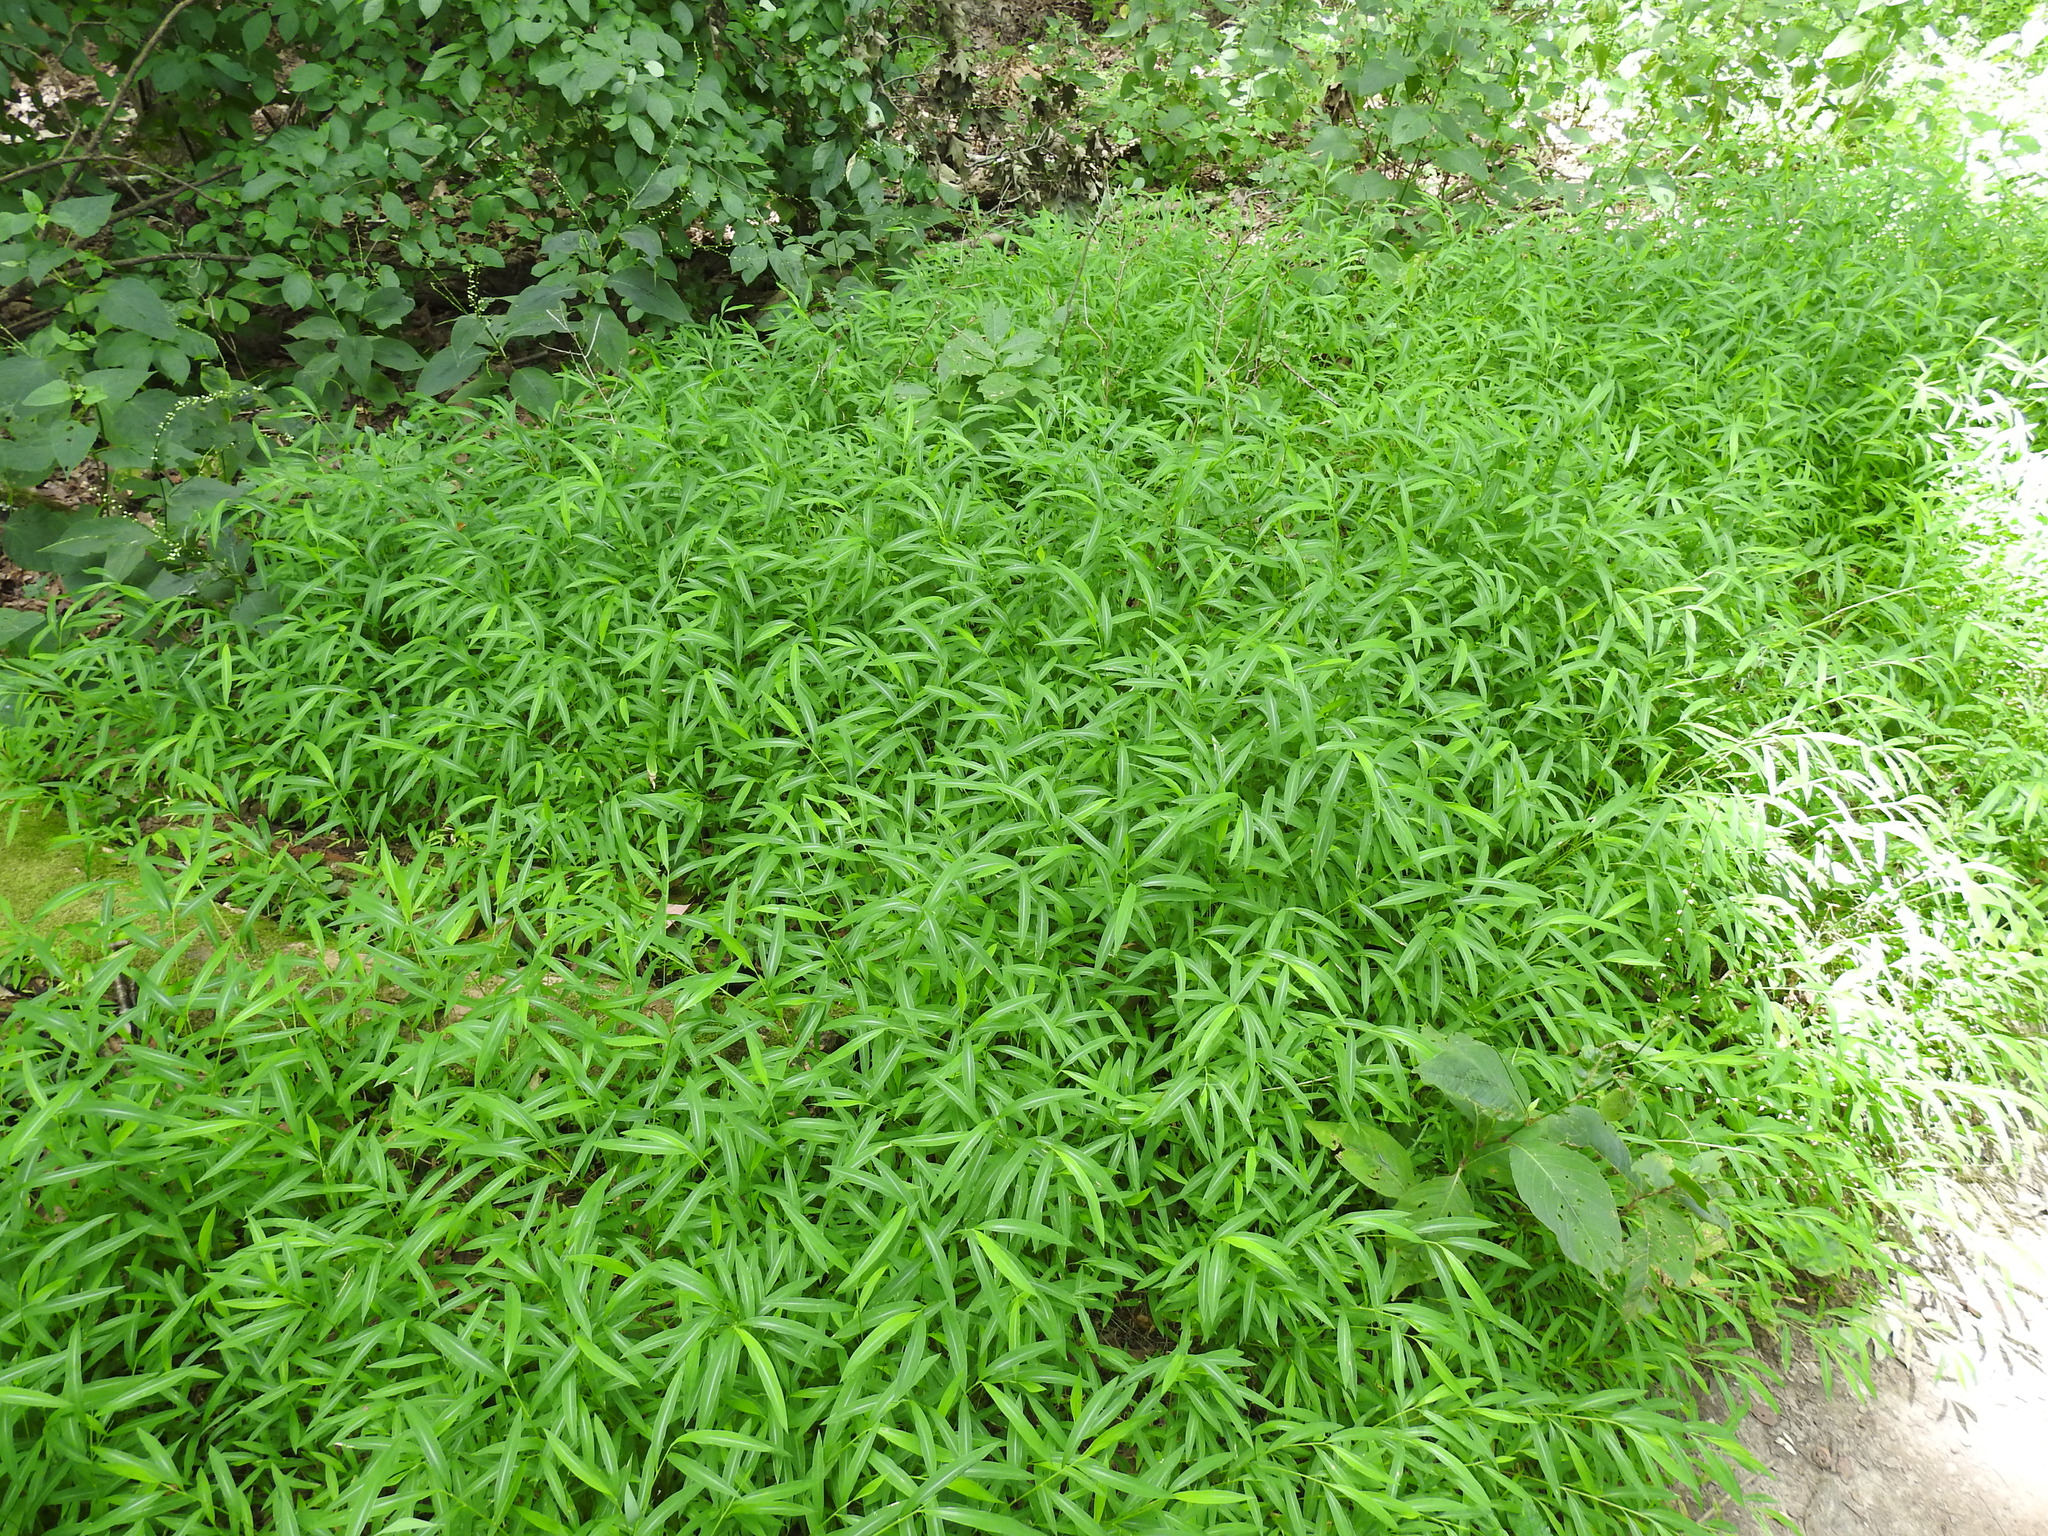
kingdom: Plantae
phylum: Tracheophyta
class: Liliopsida
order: Poales
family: Poaceae
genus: Microstegium
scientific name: Microstegium vimineum
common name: Japanese stiltgrass
